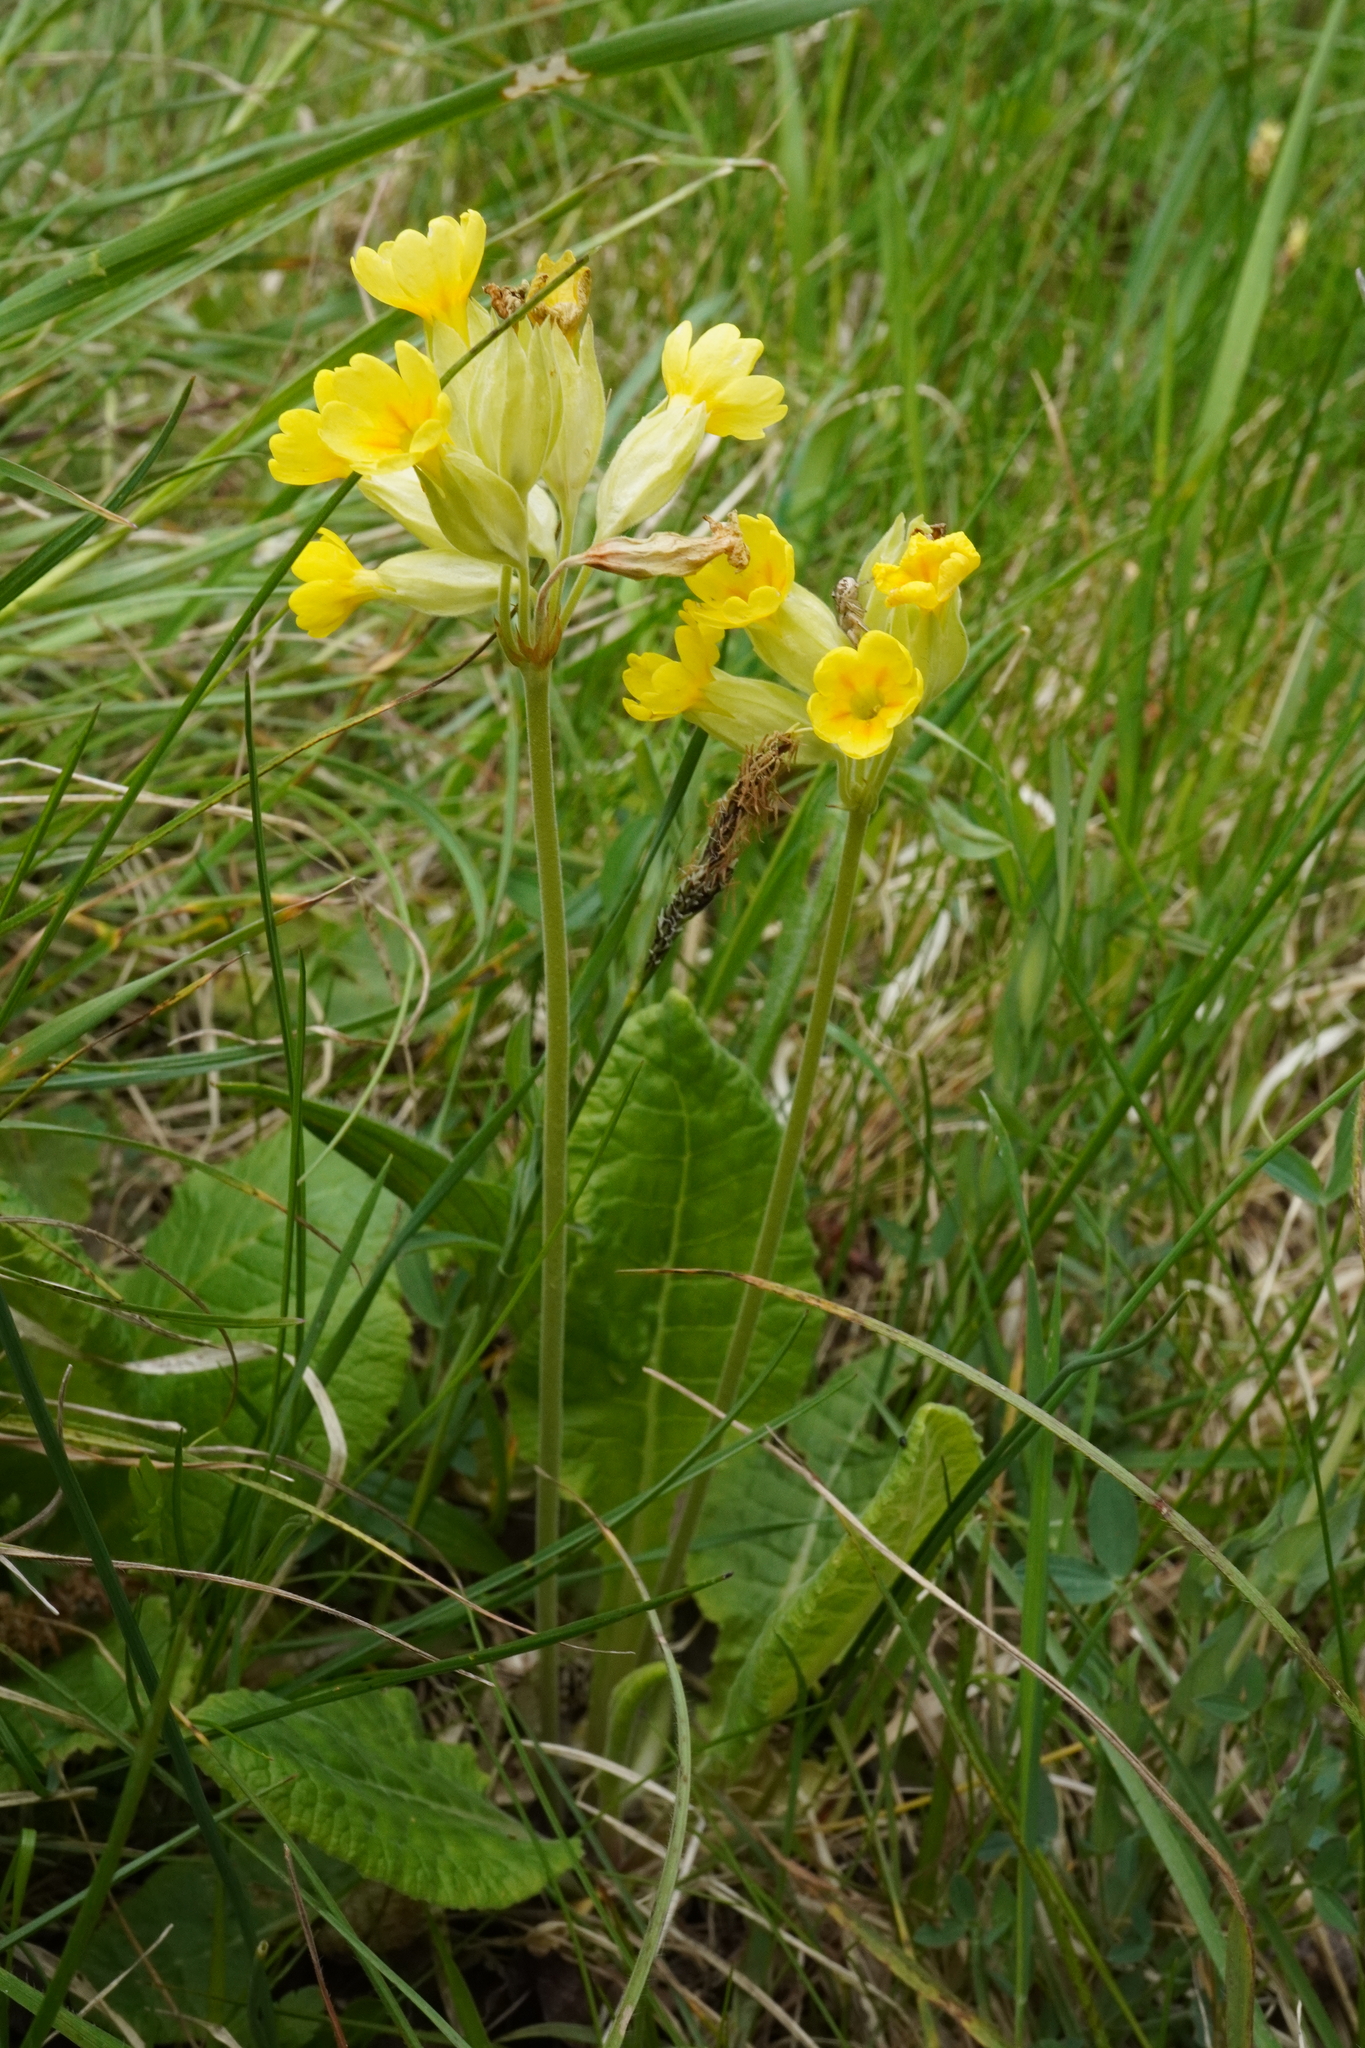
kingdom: Plantae
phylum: Tracheophyta
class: Magnoliopsida
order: Ericales
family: Primulaceae
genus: Primula
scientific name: Primula veris
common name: Cowslip
